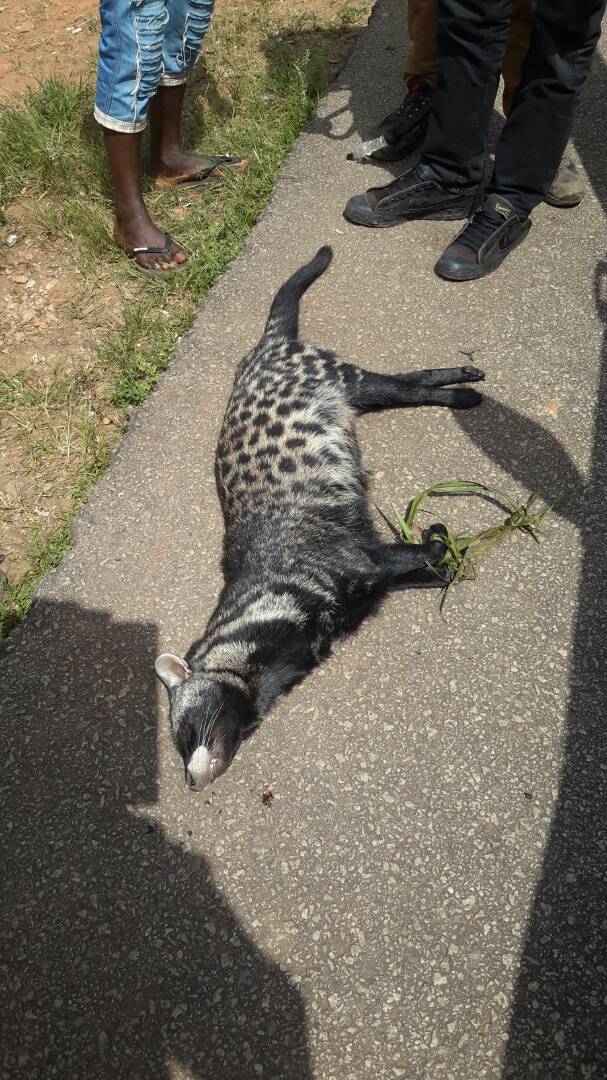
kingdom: Animalia
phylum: Chordata
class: Mammalia
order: Carnivora
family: Viverridae
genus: Civettictis
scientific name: Civettictis civetta
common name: African civet
